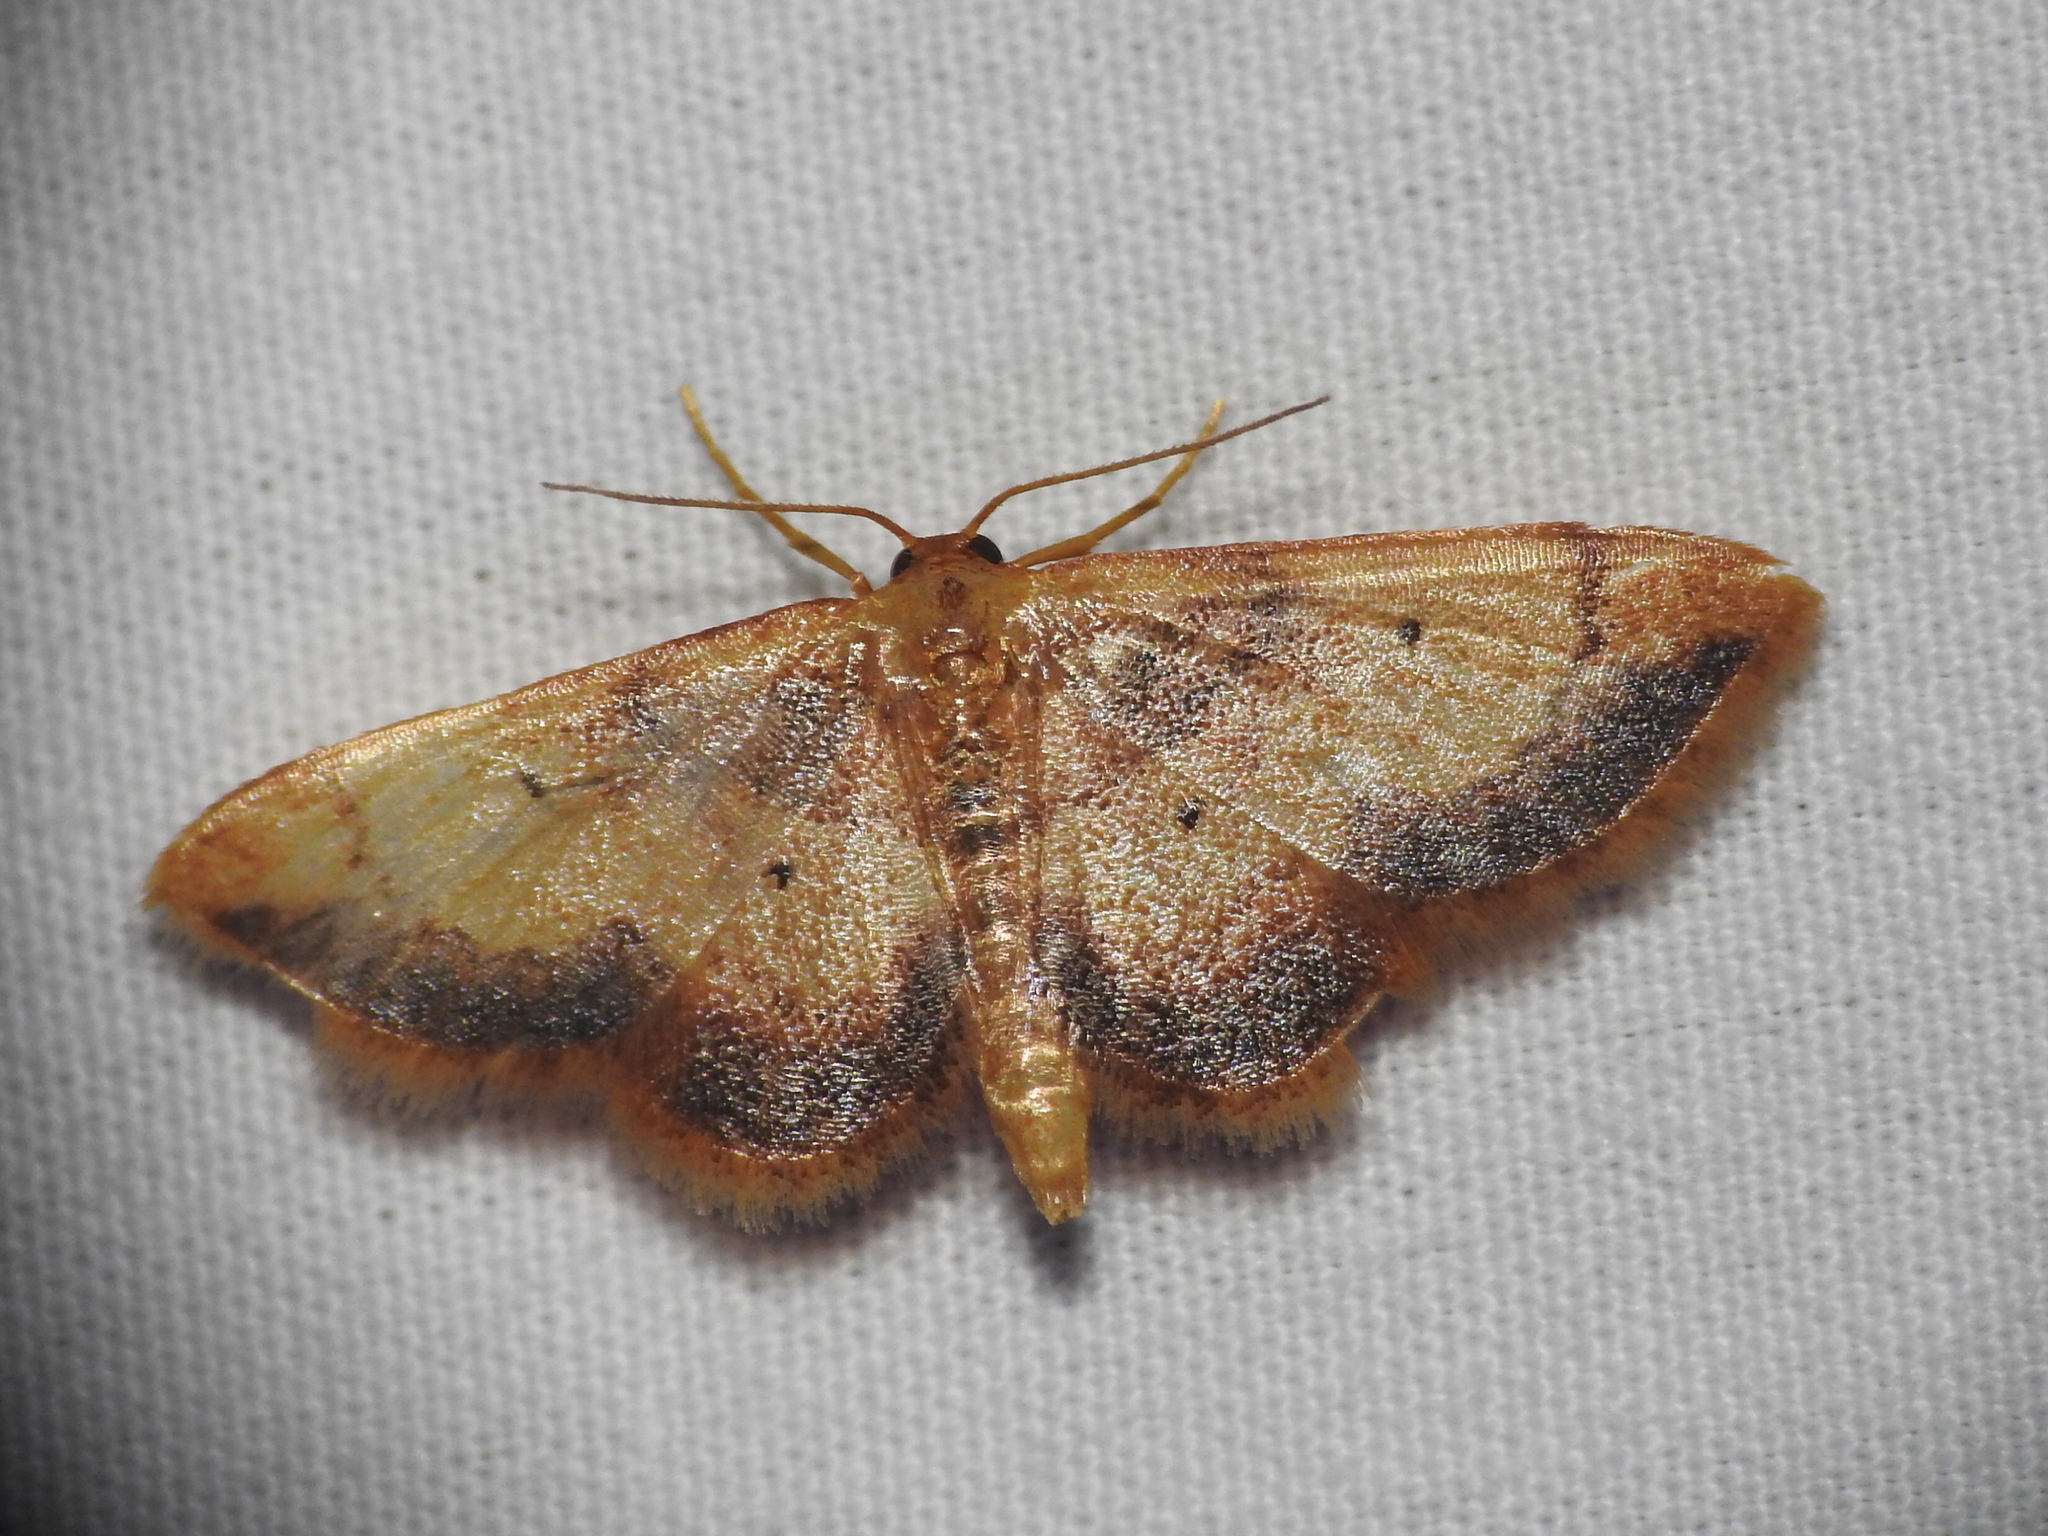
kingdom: Animalia
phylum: Arthropoda
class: Insecta
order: Lepidoptera
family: Geometridae
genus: Idaea
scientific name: Idaea demissaria
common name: Red-bordered wave
